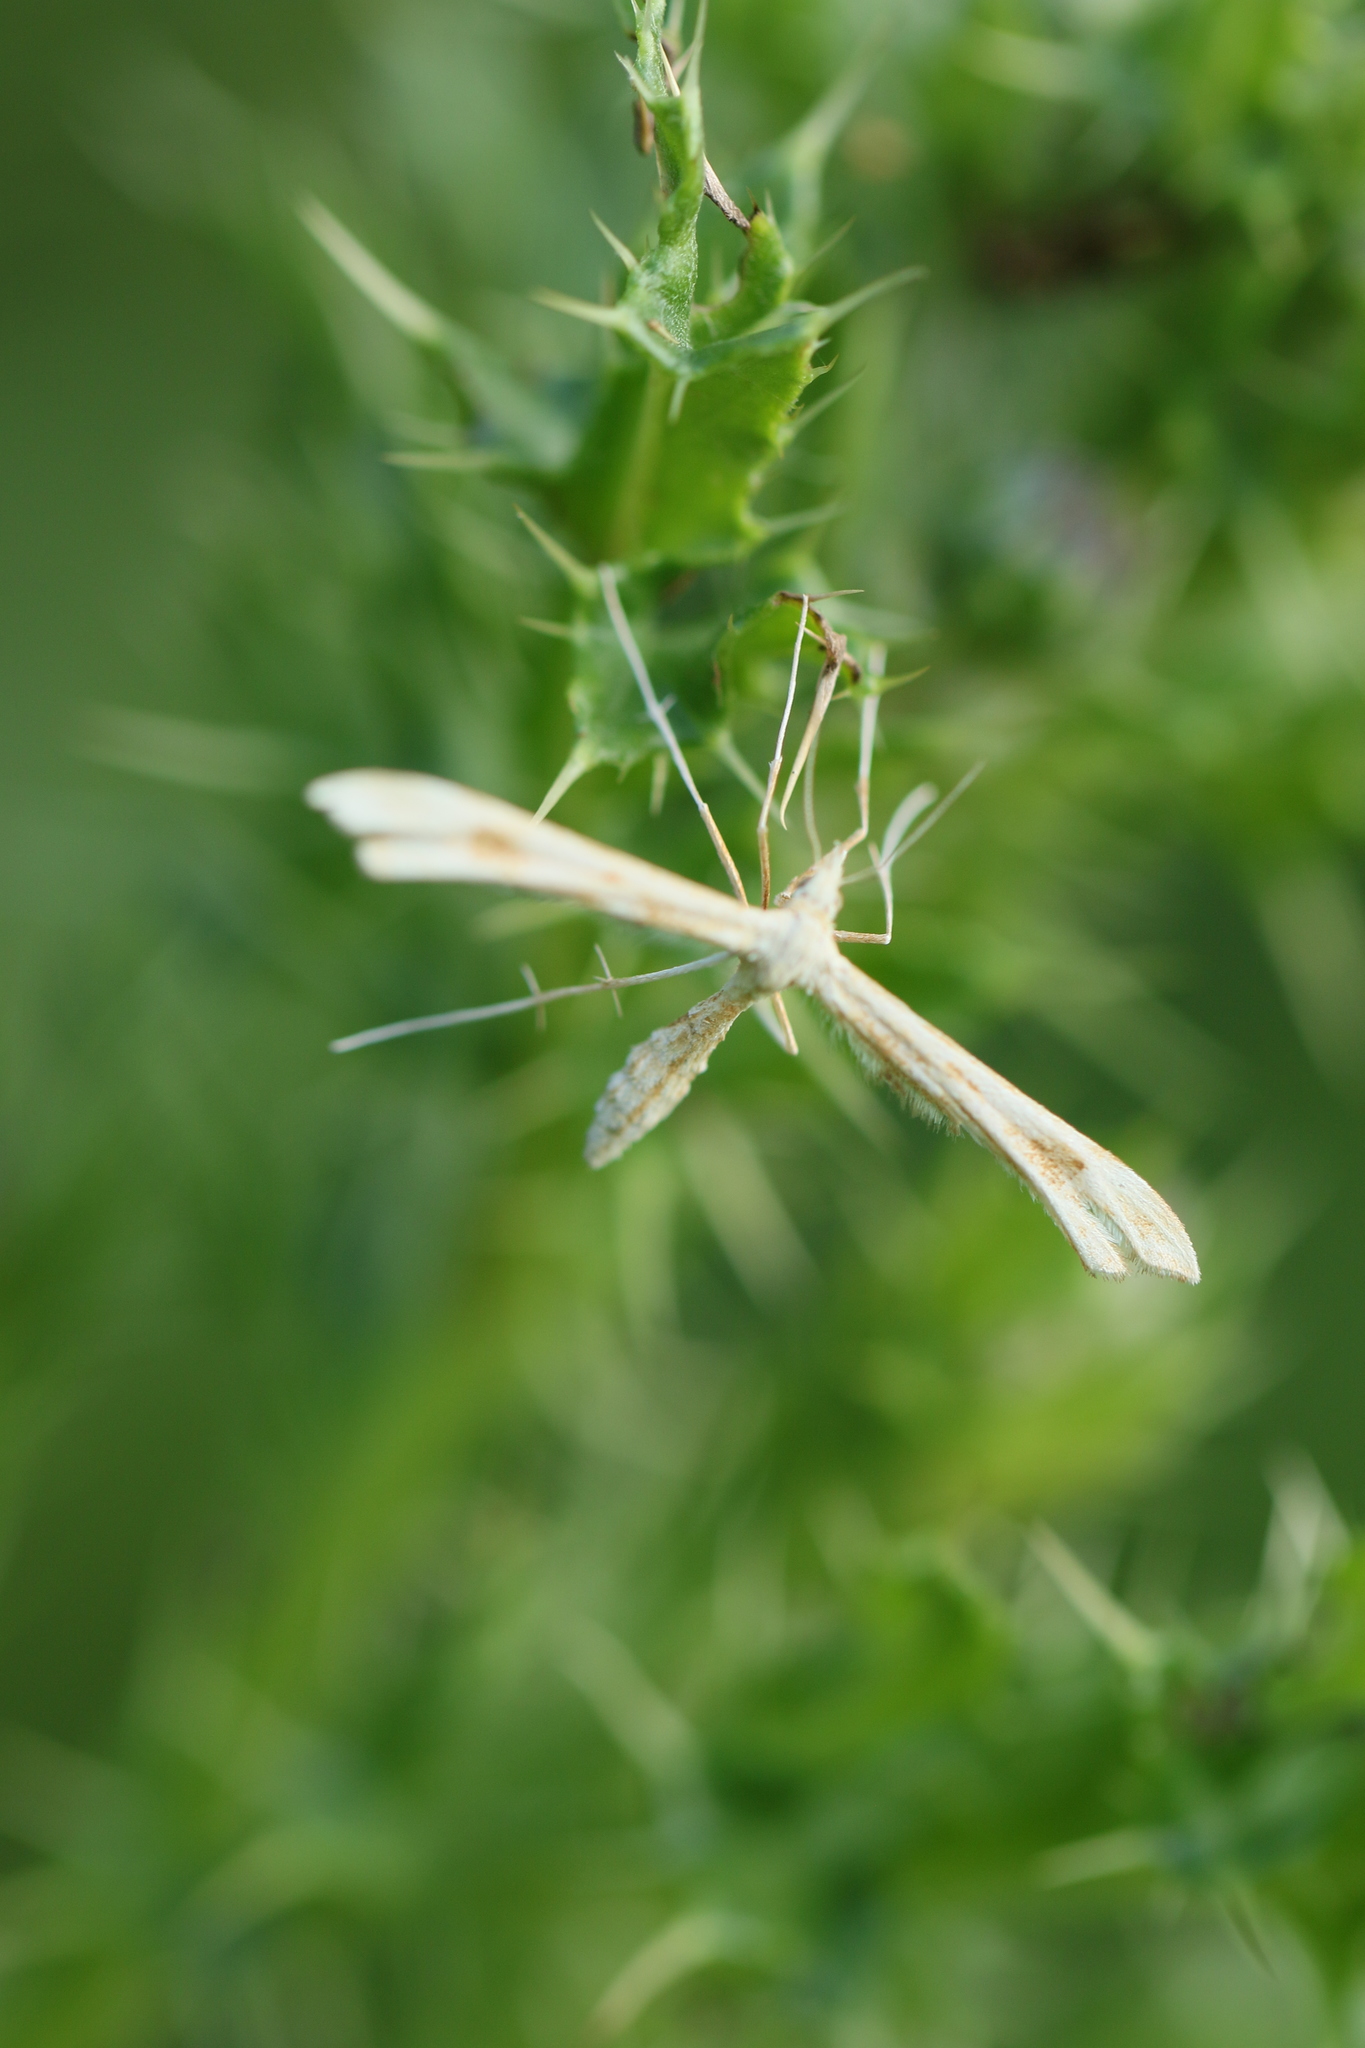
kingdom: Animalia
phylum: Arthropoda
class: Insecta
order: Lepidoptera
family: Pterophoridae
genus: Gillmeria
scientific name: Gillmeria pallidactyla
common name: Yarrow plume
